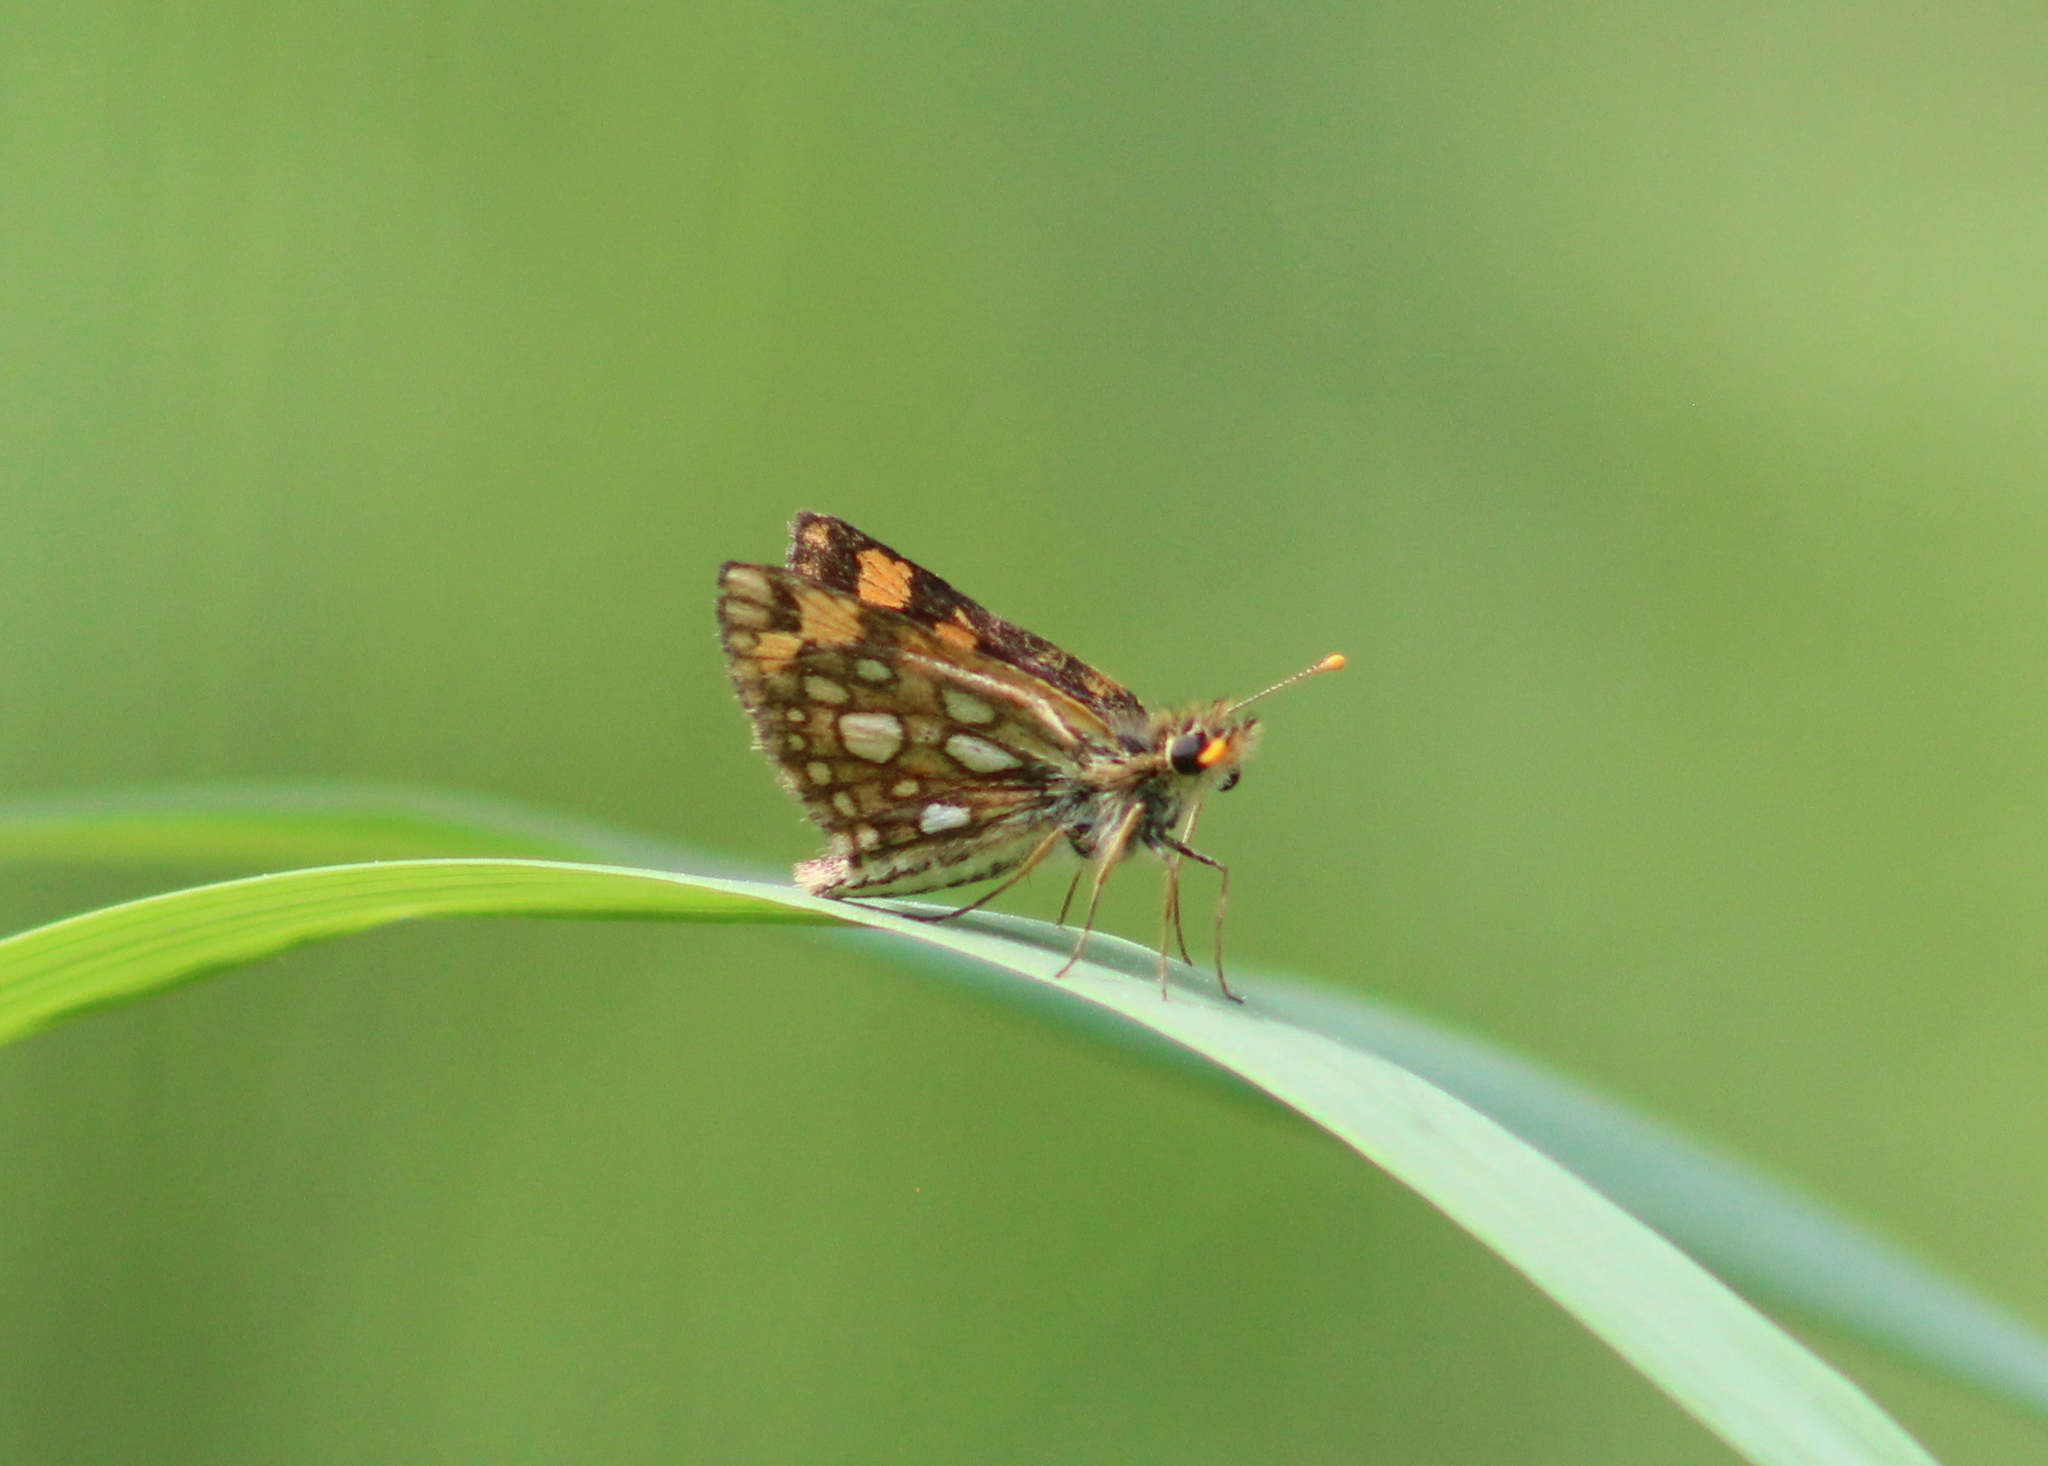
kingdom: Animalia
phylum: Arthropoda
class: Insecta
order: Lepidoptera
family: Hesperiidae
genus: Carterocephalus
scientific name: Carterocephalus mandan
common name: Arctic skipperling
